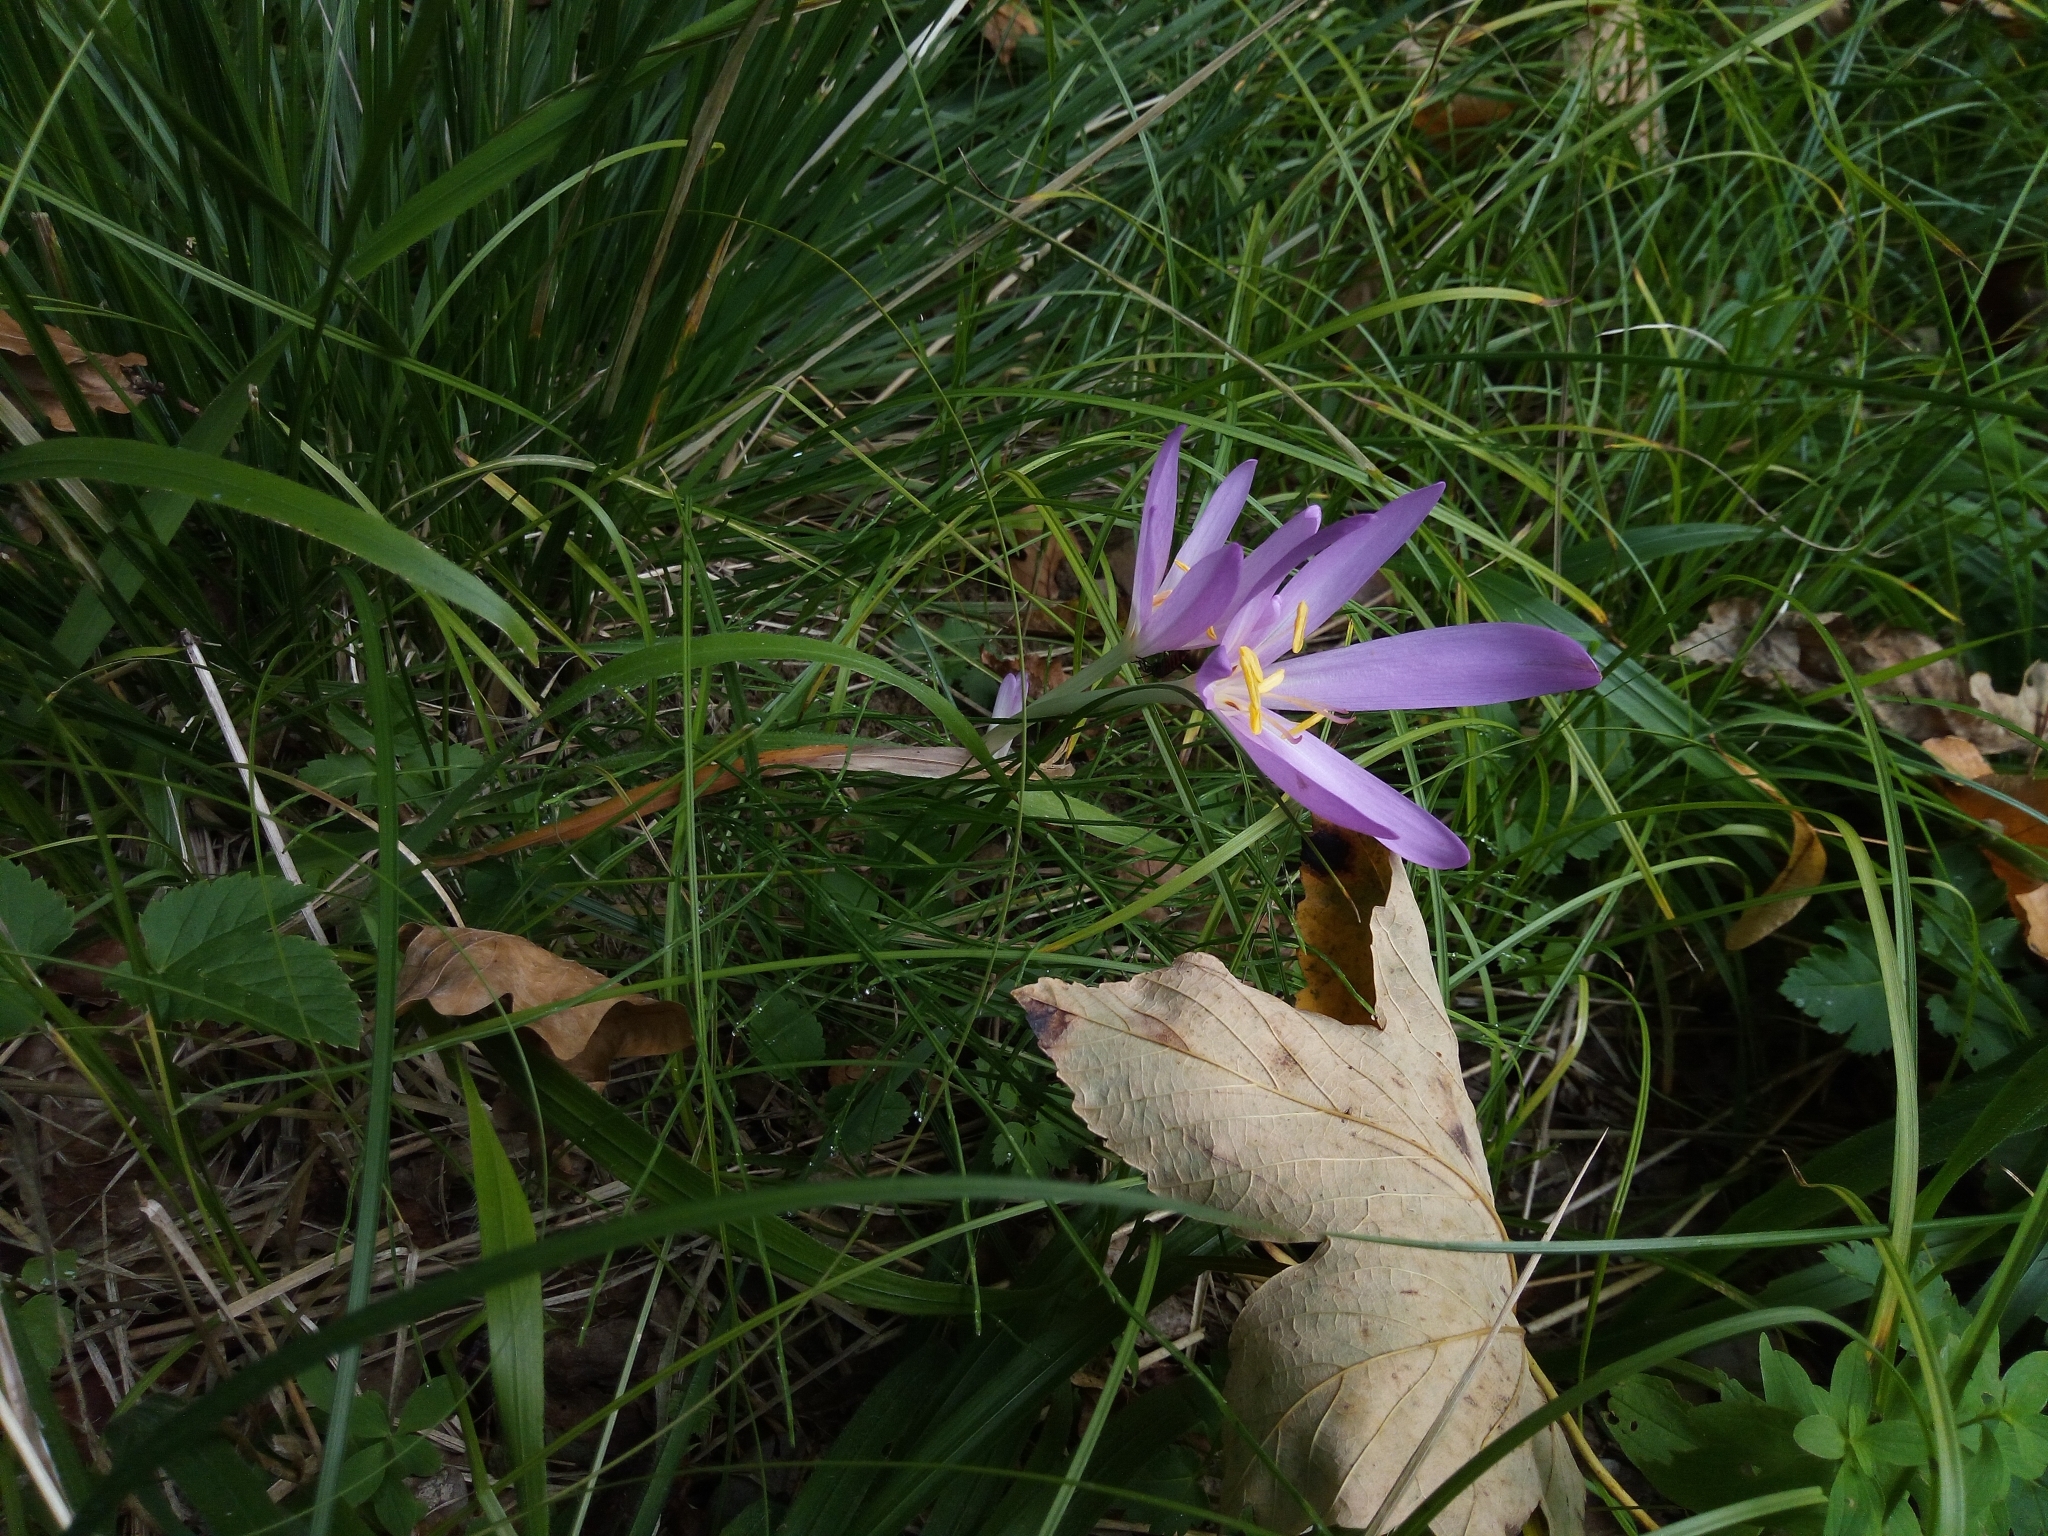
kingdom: Plantae
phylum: Tracheophyta
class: Liliopsida
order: Liliales
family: Colchicaceae
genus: Colchicum
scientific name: Colchicum autumnale
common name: Autumn crocus
